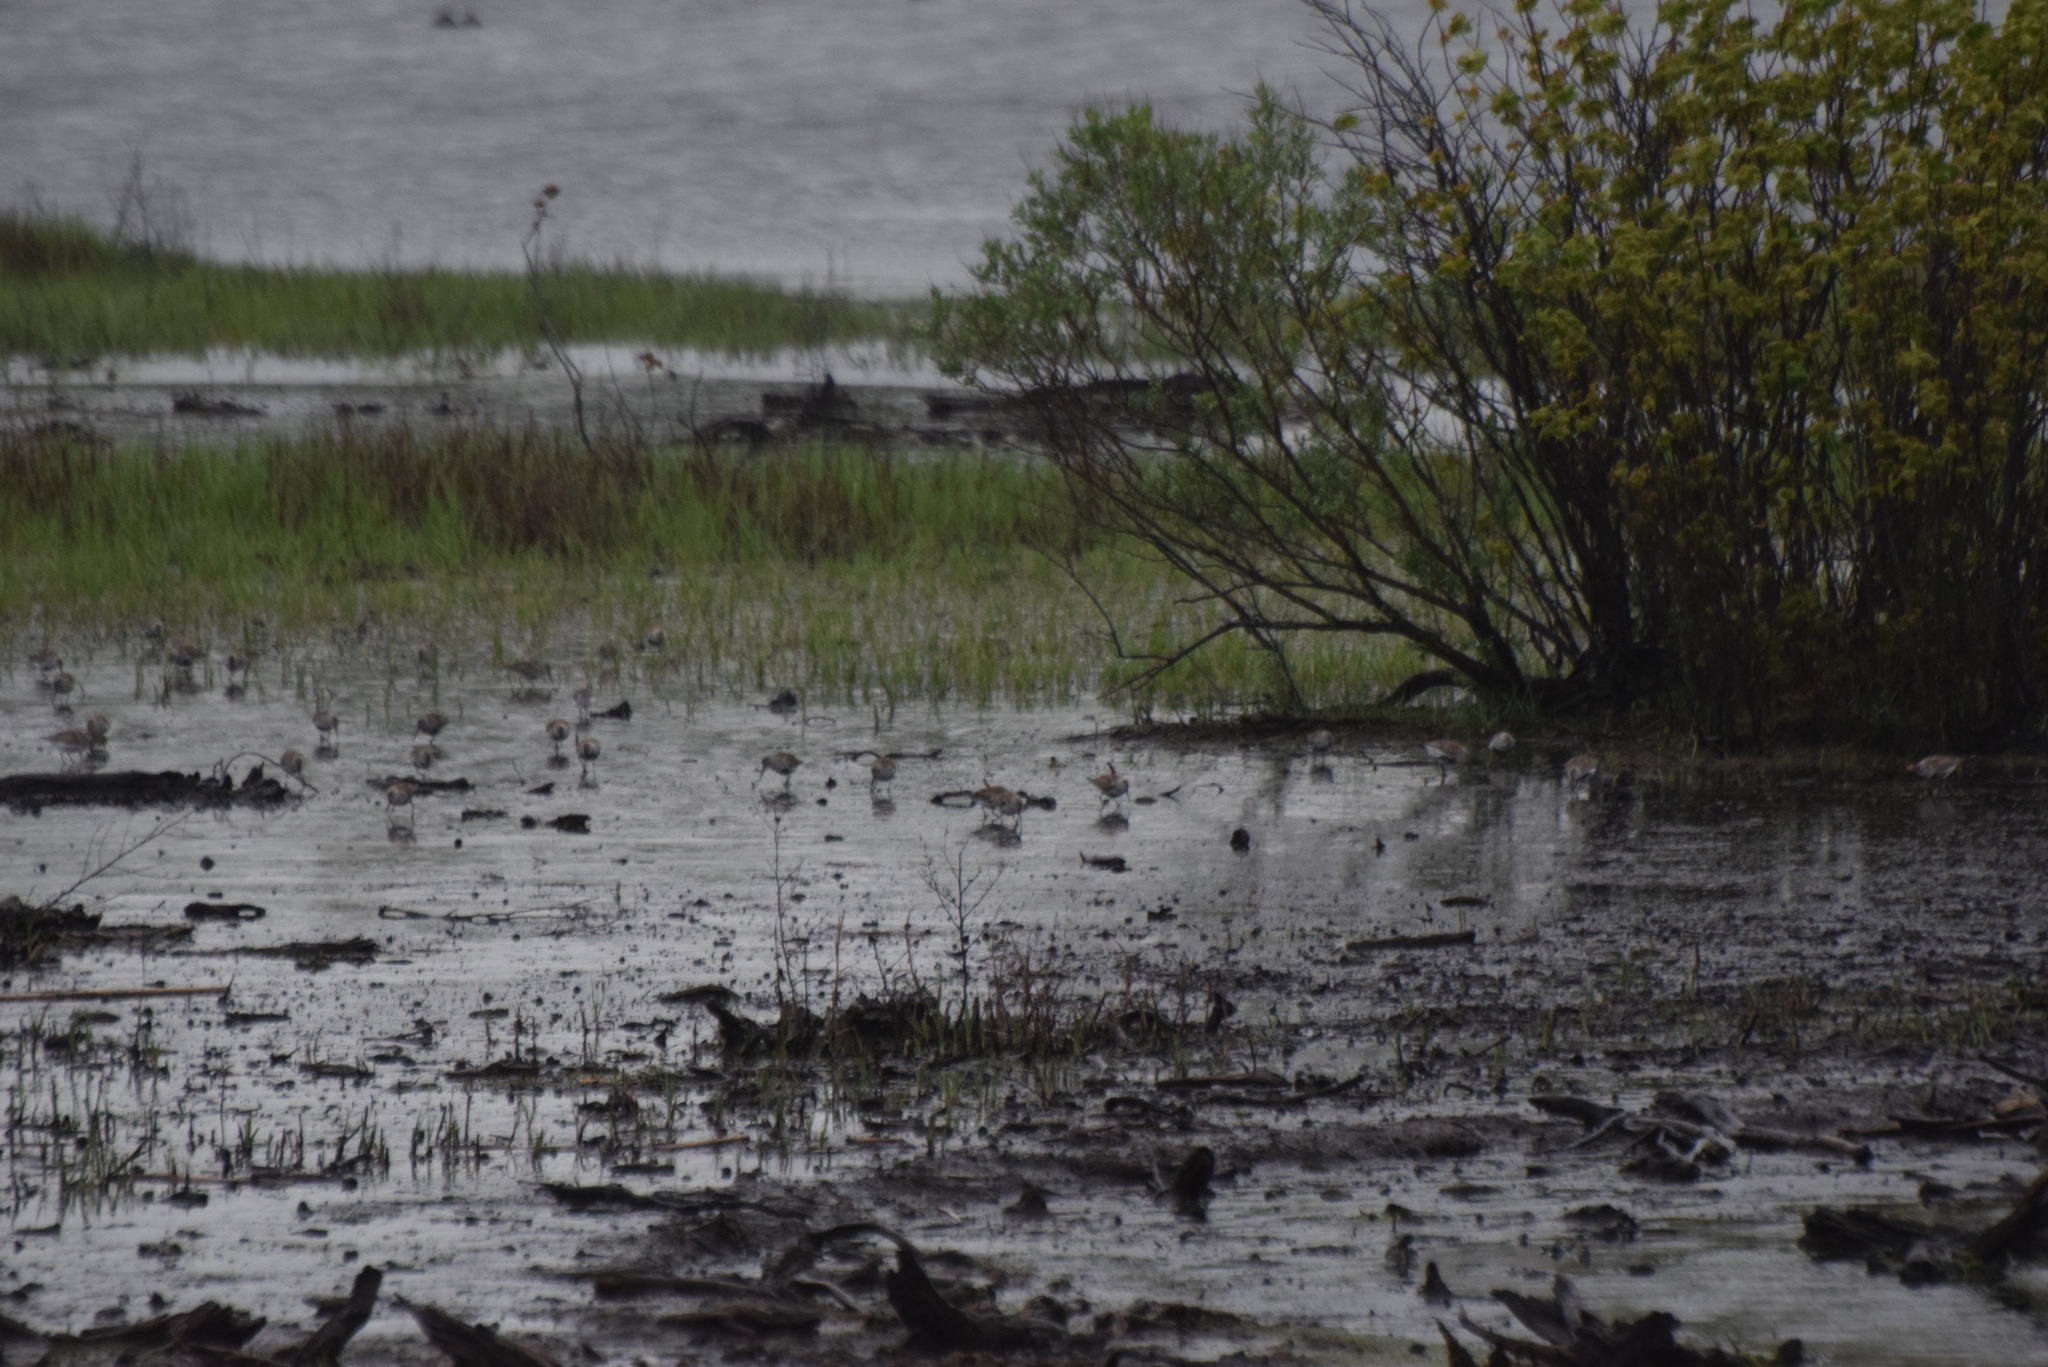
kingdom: Animalia
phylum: Chordata
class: Aves
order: Charadriiformes
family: Scolopacidae
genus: Calidris
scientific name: Calidris alpina
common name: Dunlin
